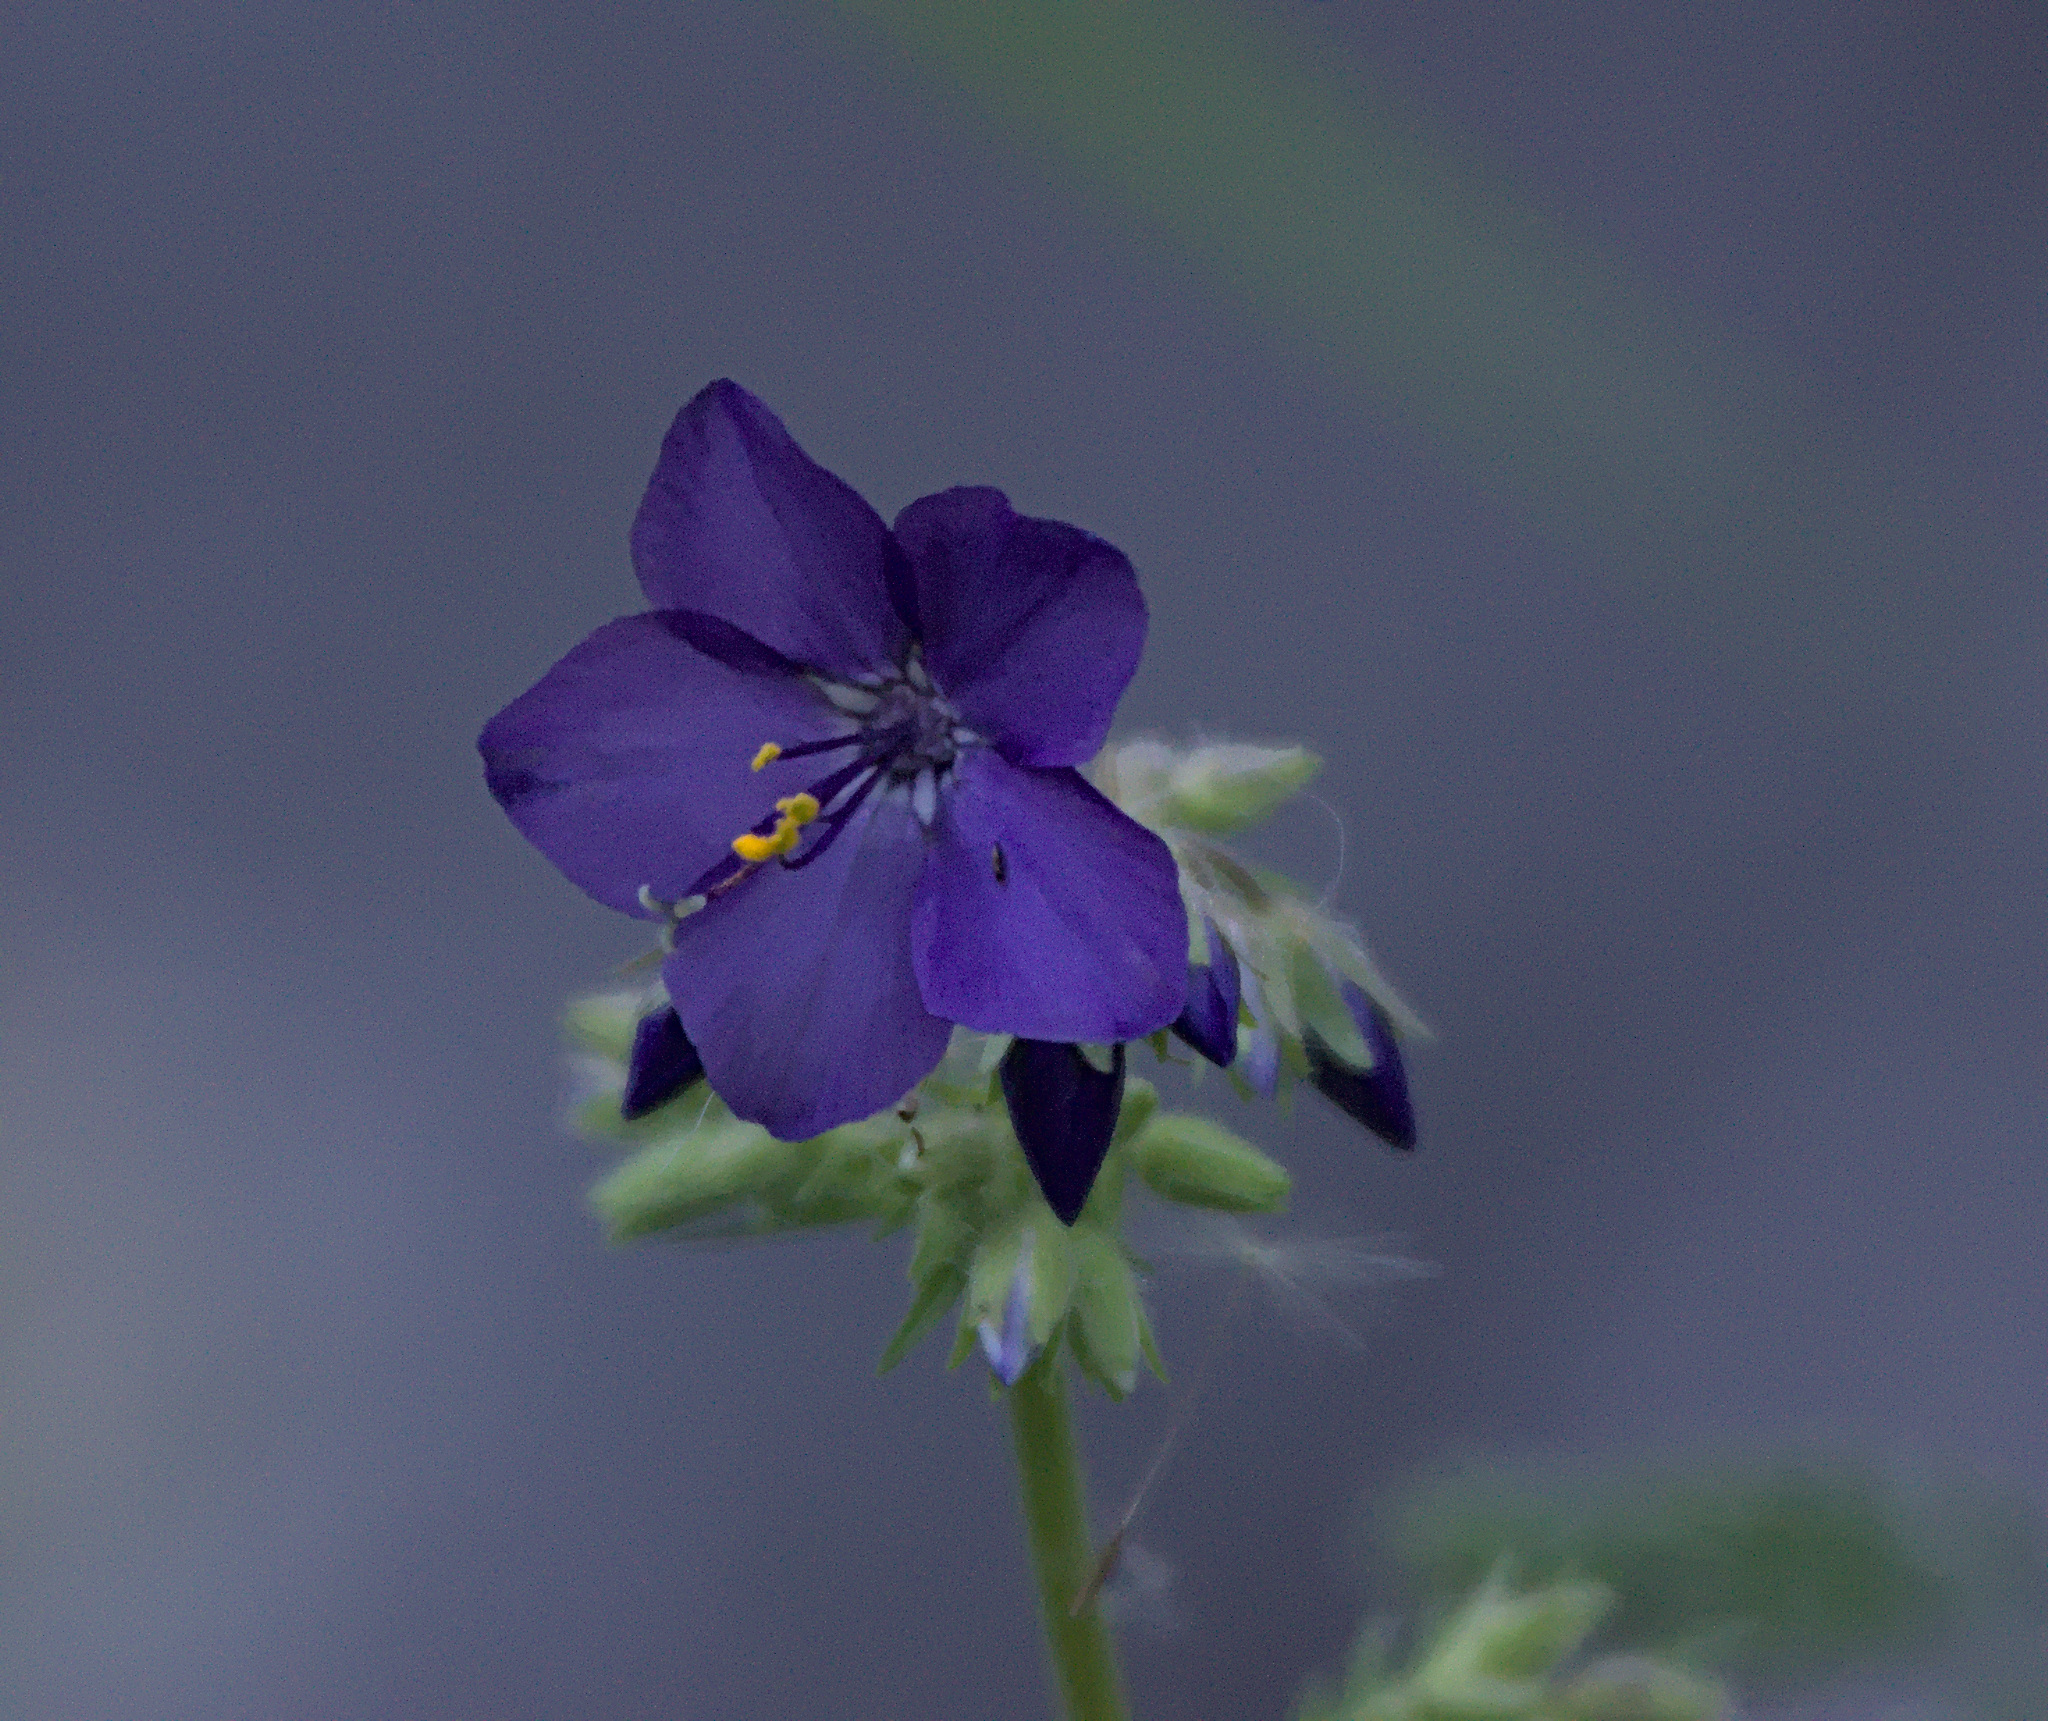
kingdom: Plantae
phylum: Tracheophyta
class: Magnoliopsida
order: Ericales
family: Polemoniaceae
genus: Polemonium
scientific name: Polemonium caeruleum
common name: Jacob's-ladder
